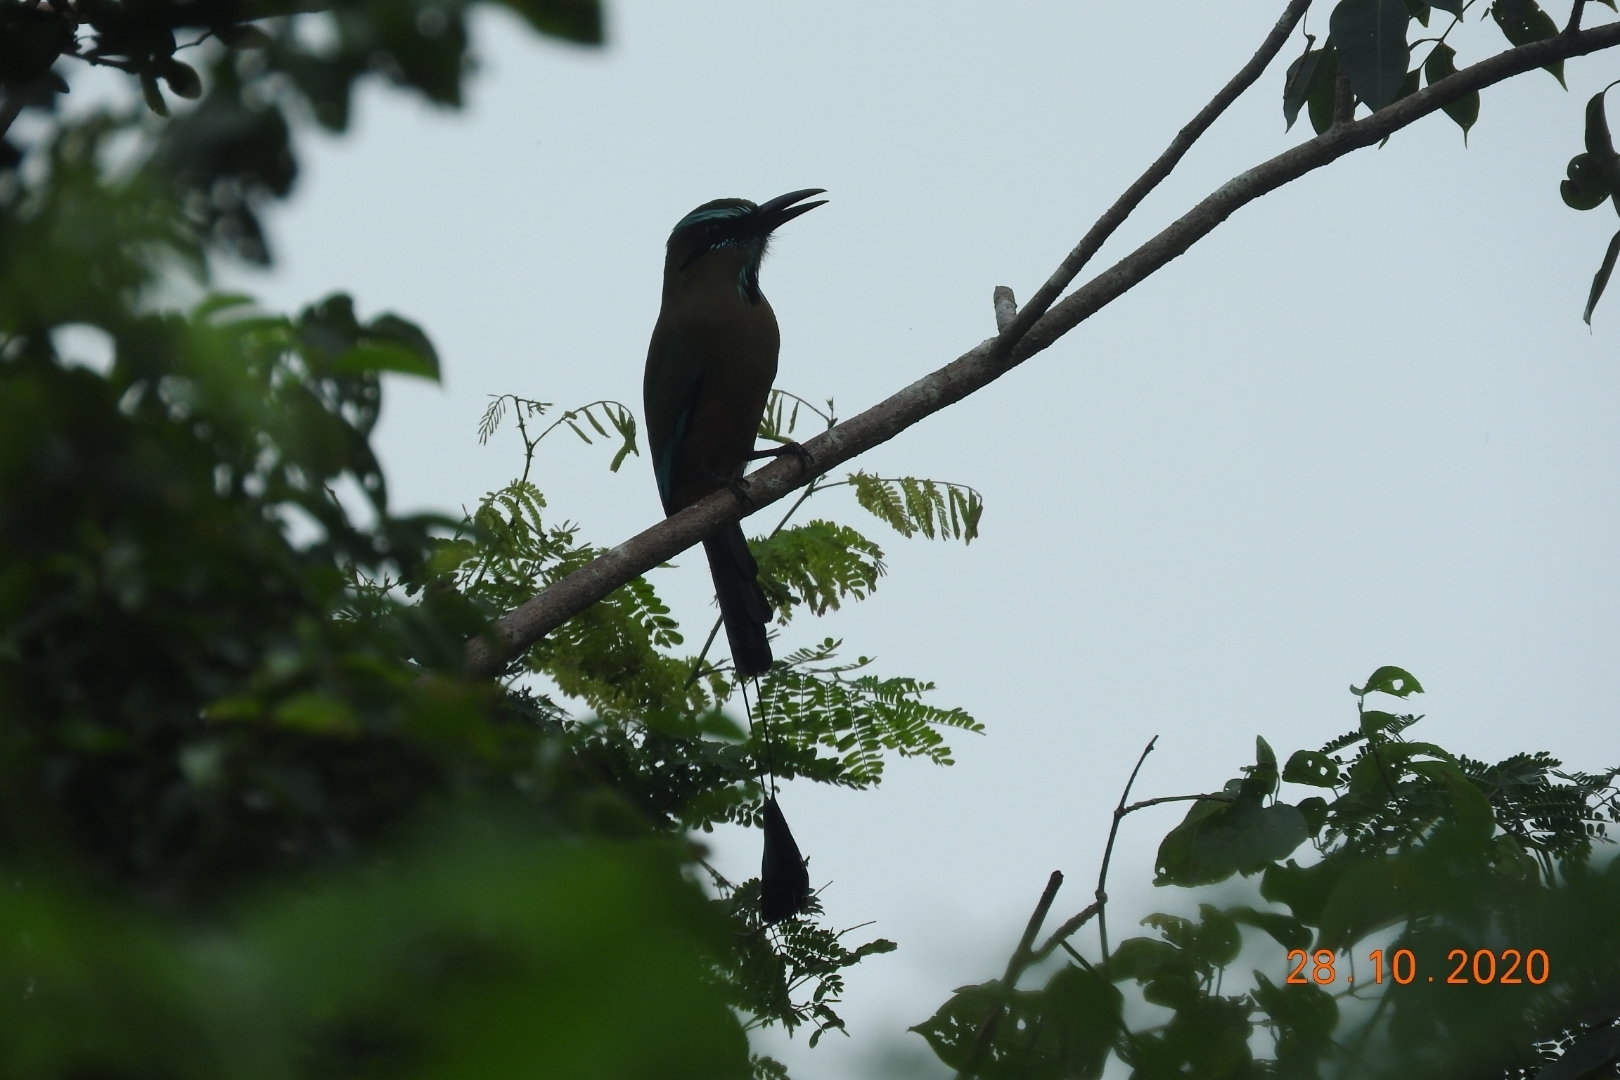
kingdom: Animalia
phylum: Chordata
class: Aves
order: Coraciiformes
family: Momotidae
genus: Eumomota
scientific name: Eumomota superciliosa
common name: Turquoise-browed motmot
